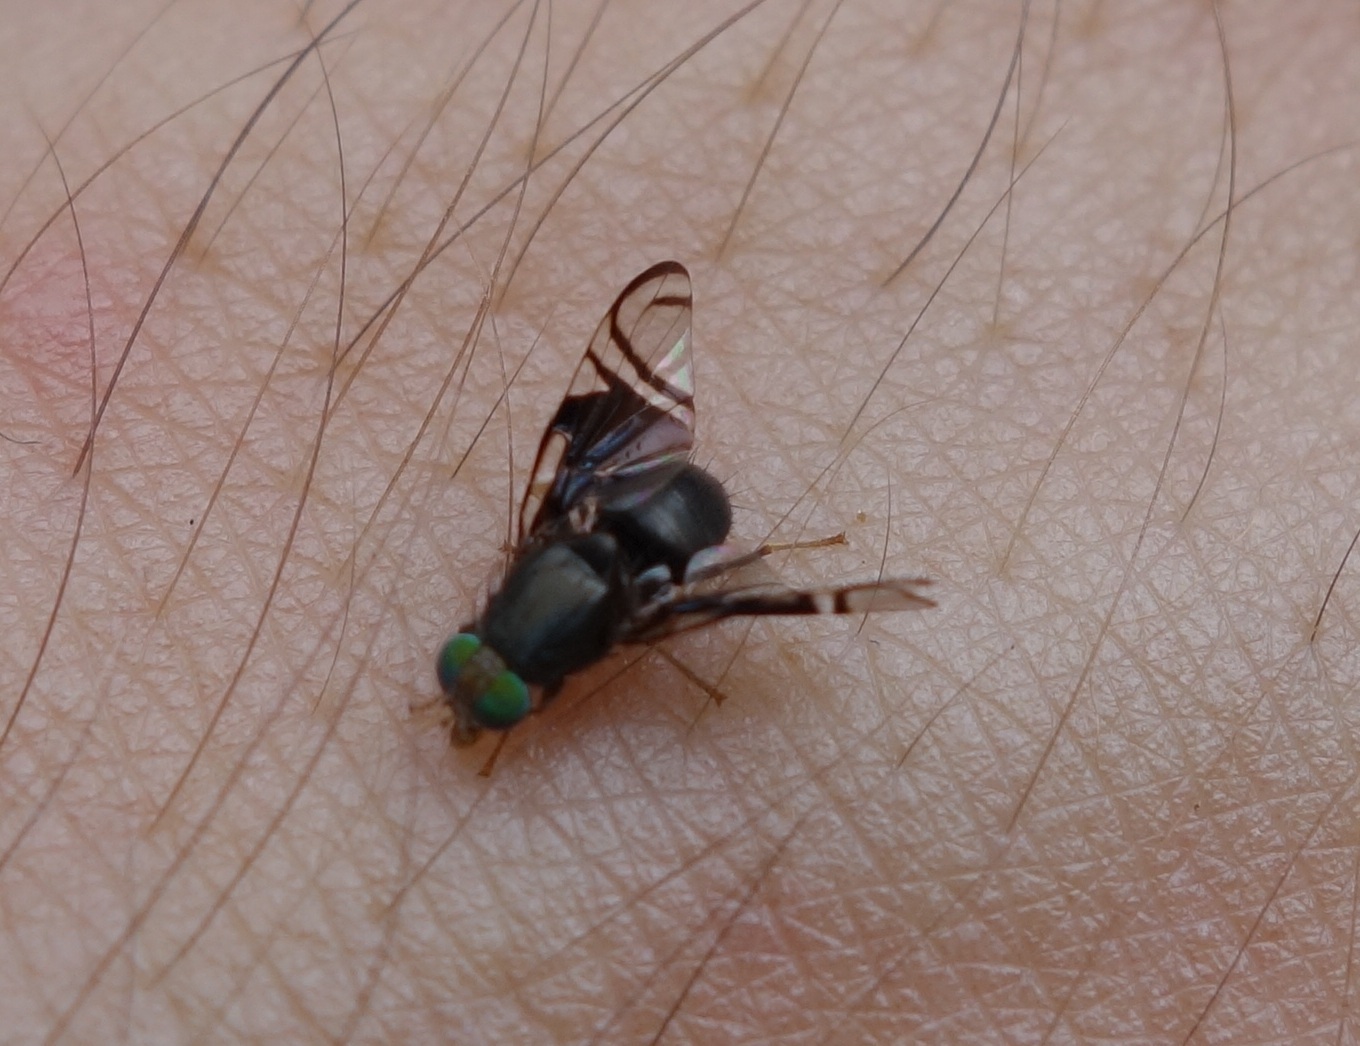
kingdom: Animalia
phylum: Arthropoda
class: Insecta
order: Diptera
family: Tephritidae
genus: Philophylla
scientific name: Philophylla fossata
